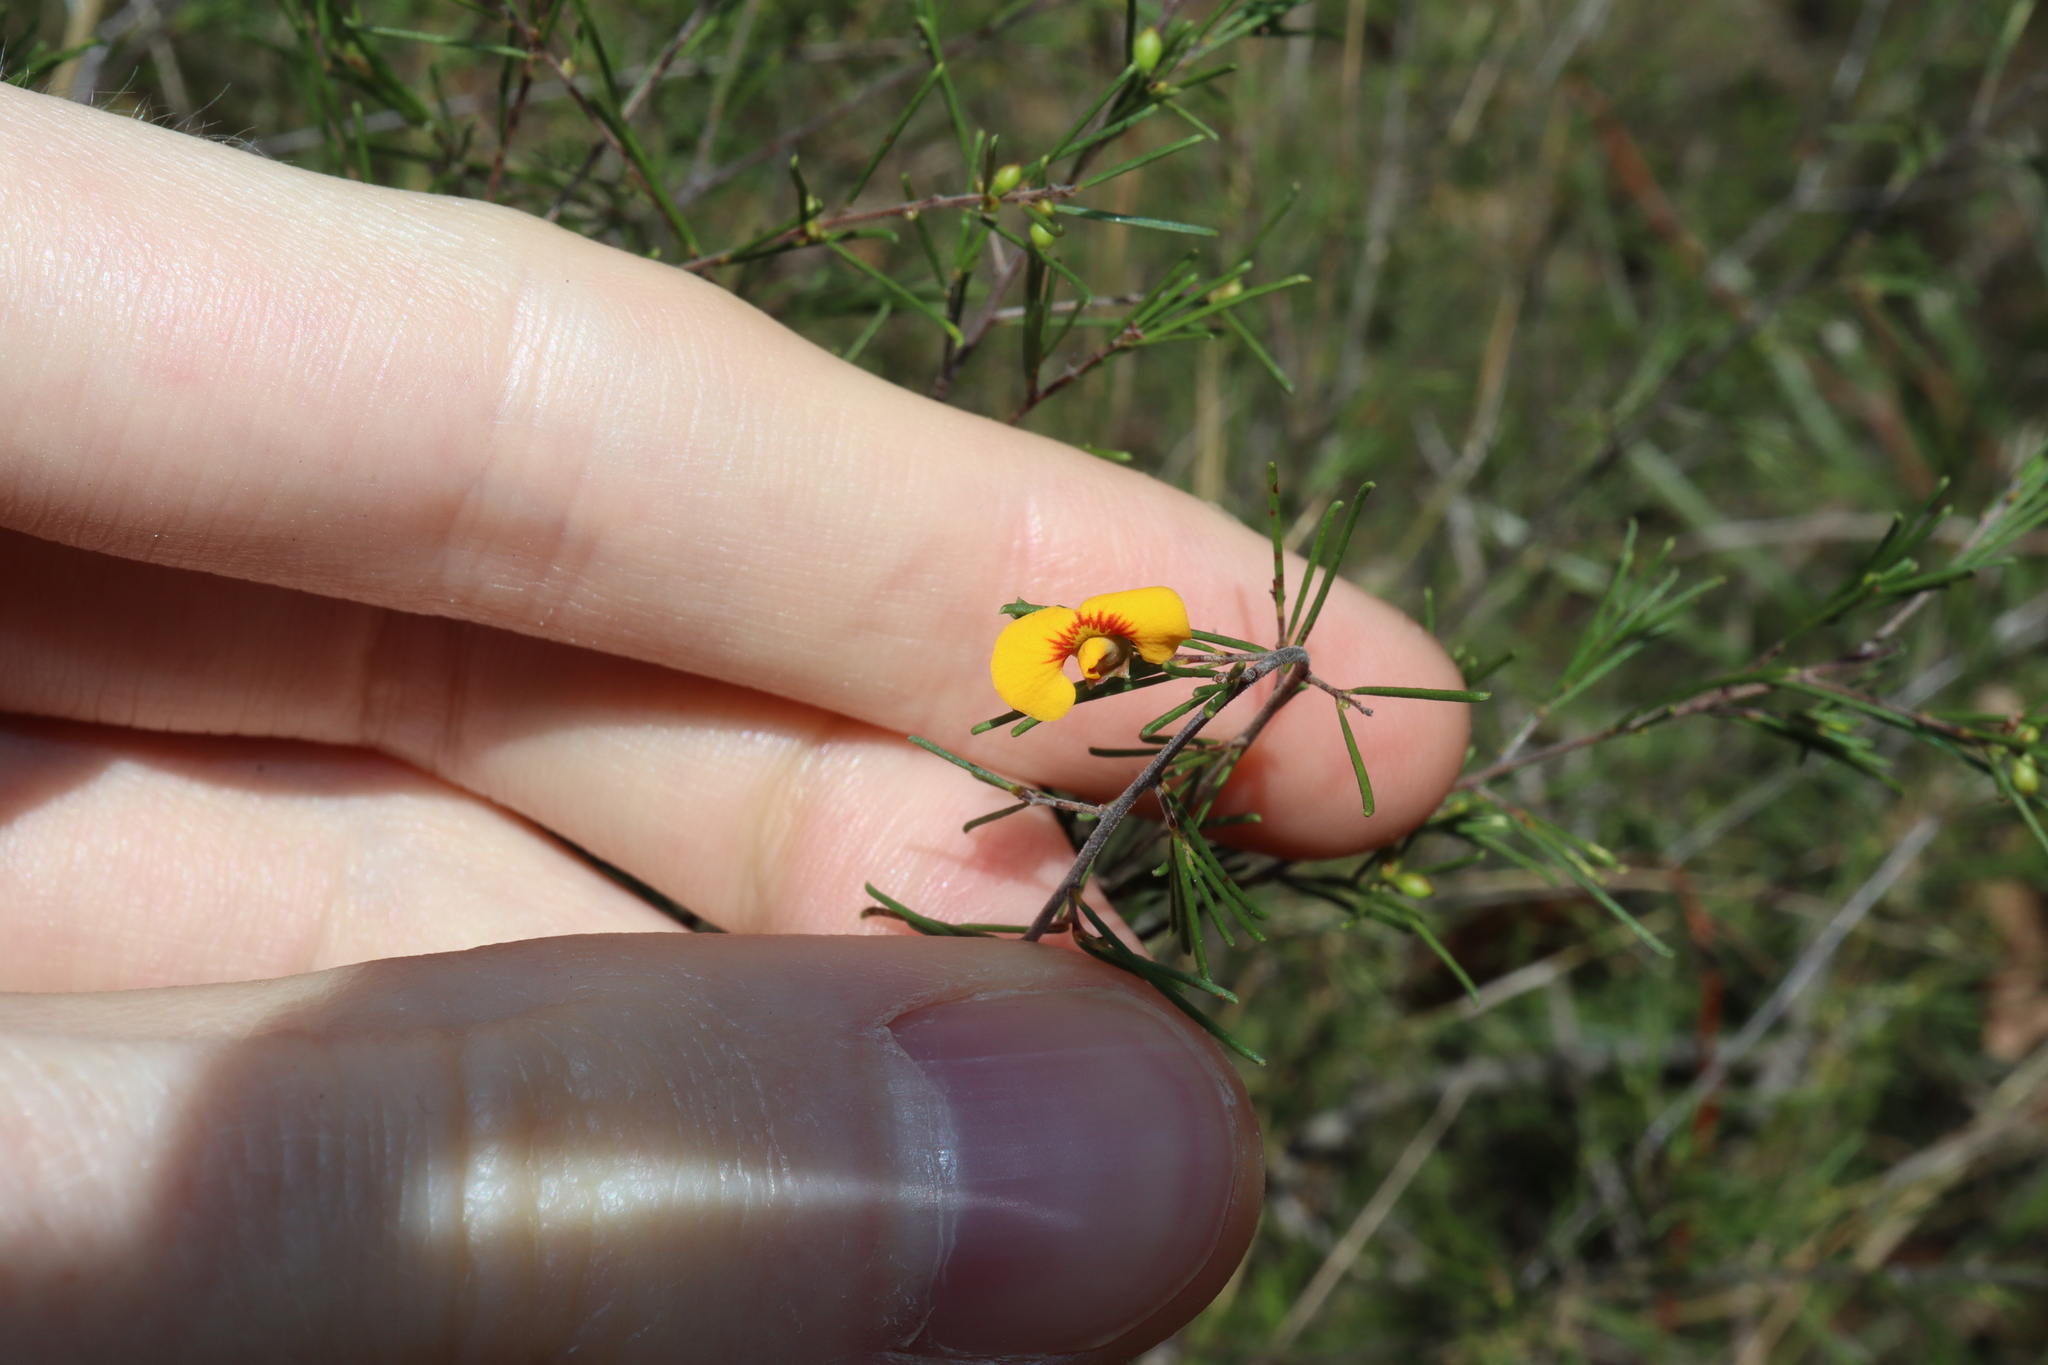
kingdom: Plantae
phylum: Tracheophyta
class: Magnoliopsida
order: Fabales
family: Fabaceae
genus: Dillwynia
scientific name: Dillwynia tenuifolia
